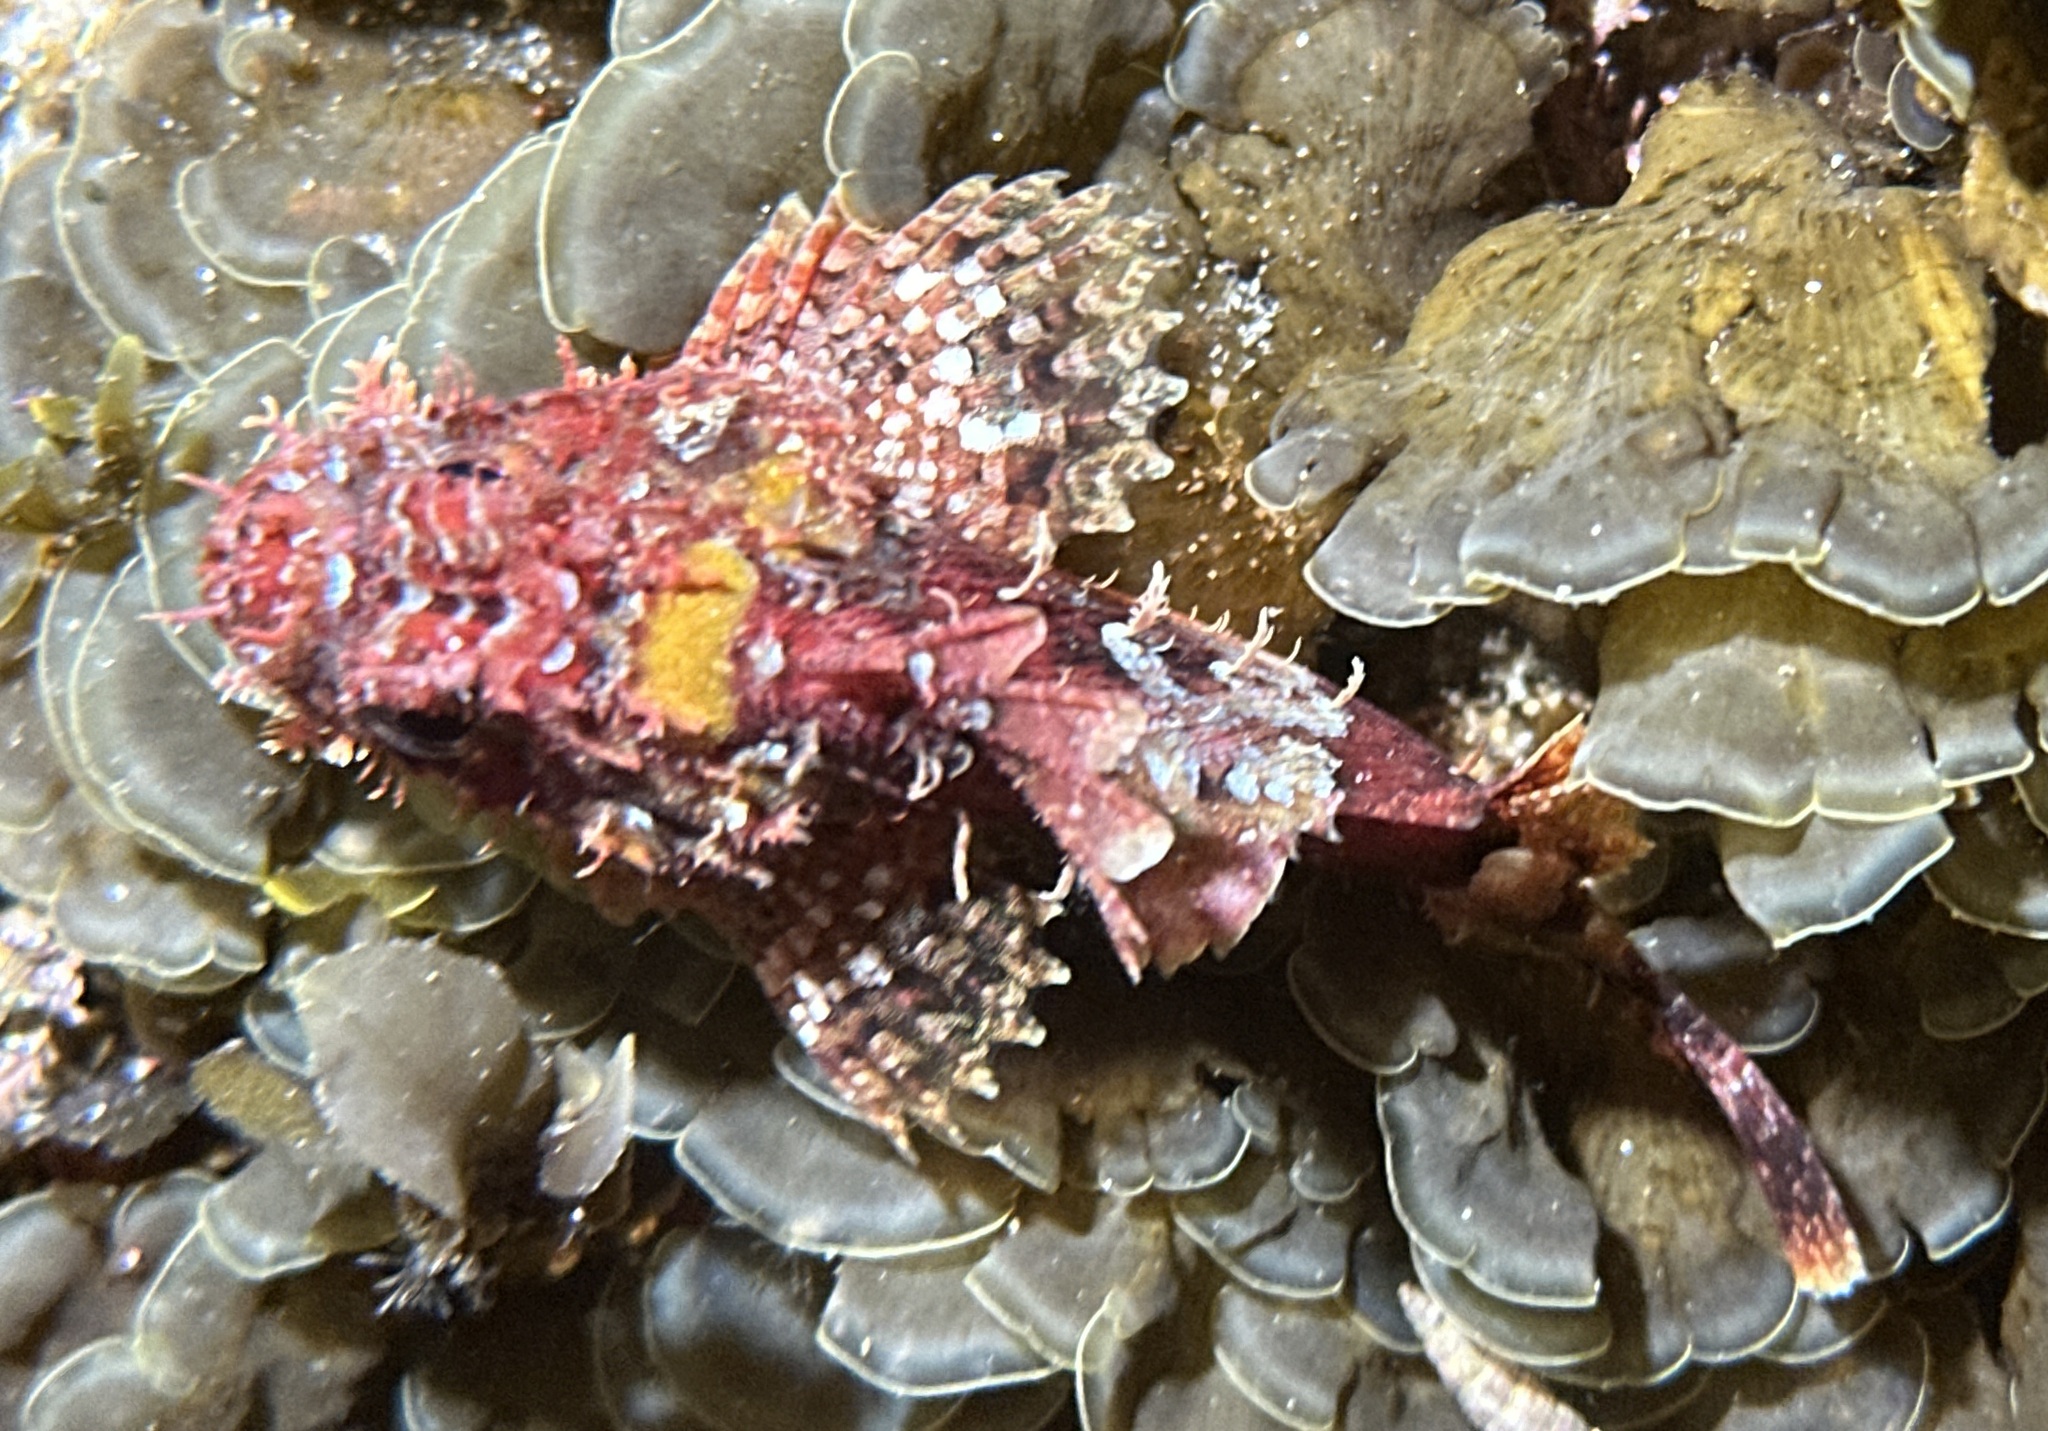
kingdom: Animalia
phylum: Chordata
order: Scorpaeniformes
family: Scorpaenidae
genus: Scorpaena
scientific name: Scorpaena jacksoniensis
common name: Eastern red scorpionfish
